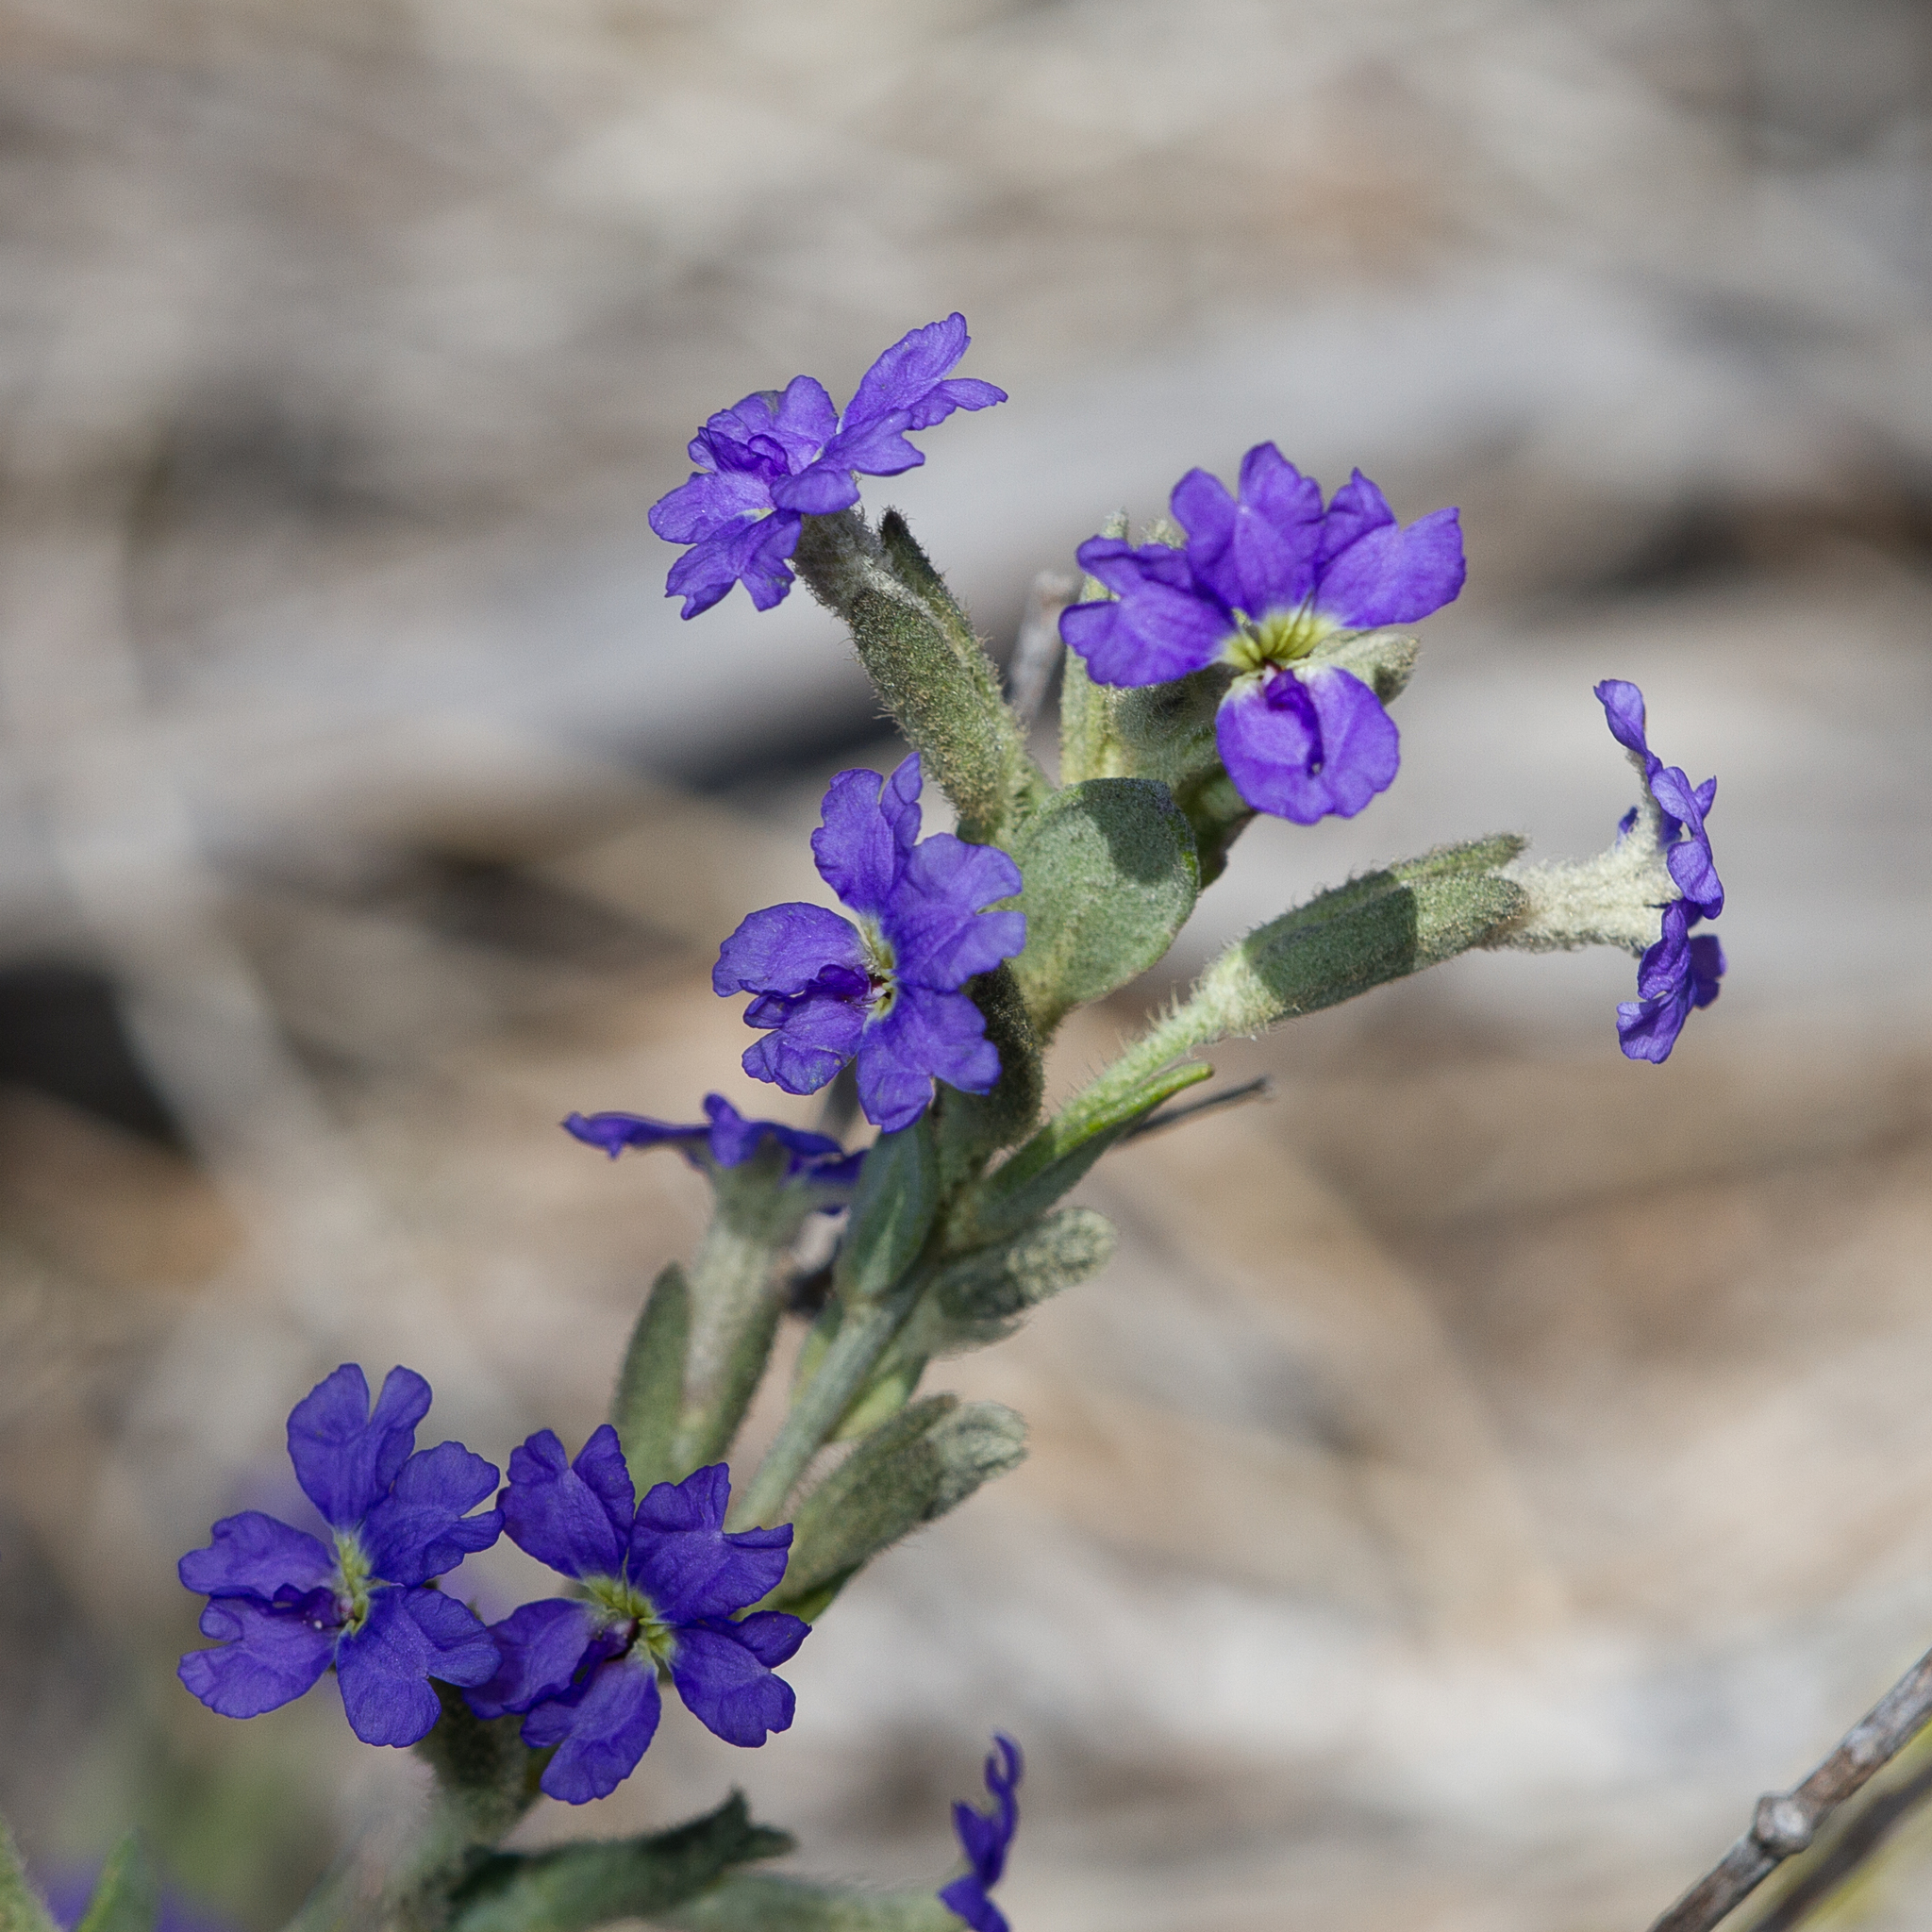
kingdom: Plantae
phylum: Tracheophyta
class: Magnoliopsida
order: Asterales
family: Goodeniaceae
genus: Dampiera
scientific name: Dampiera marifolia
